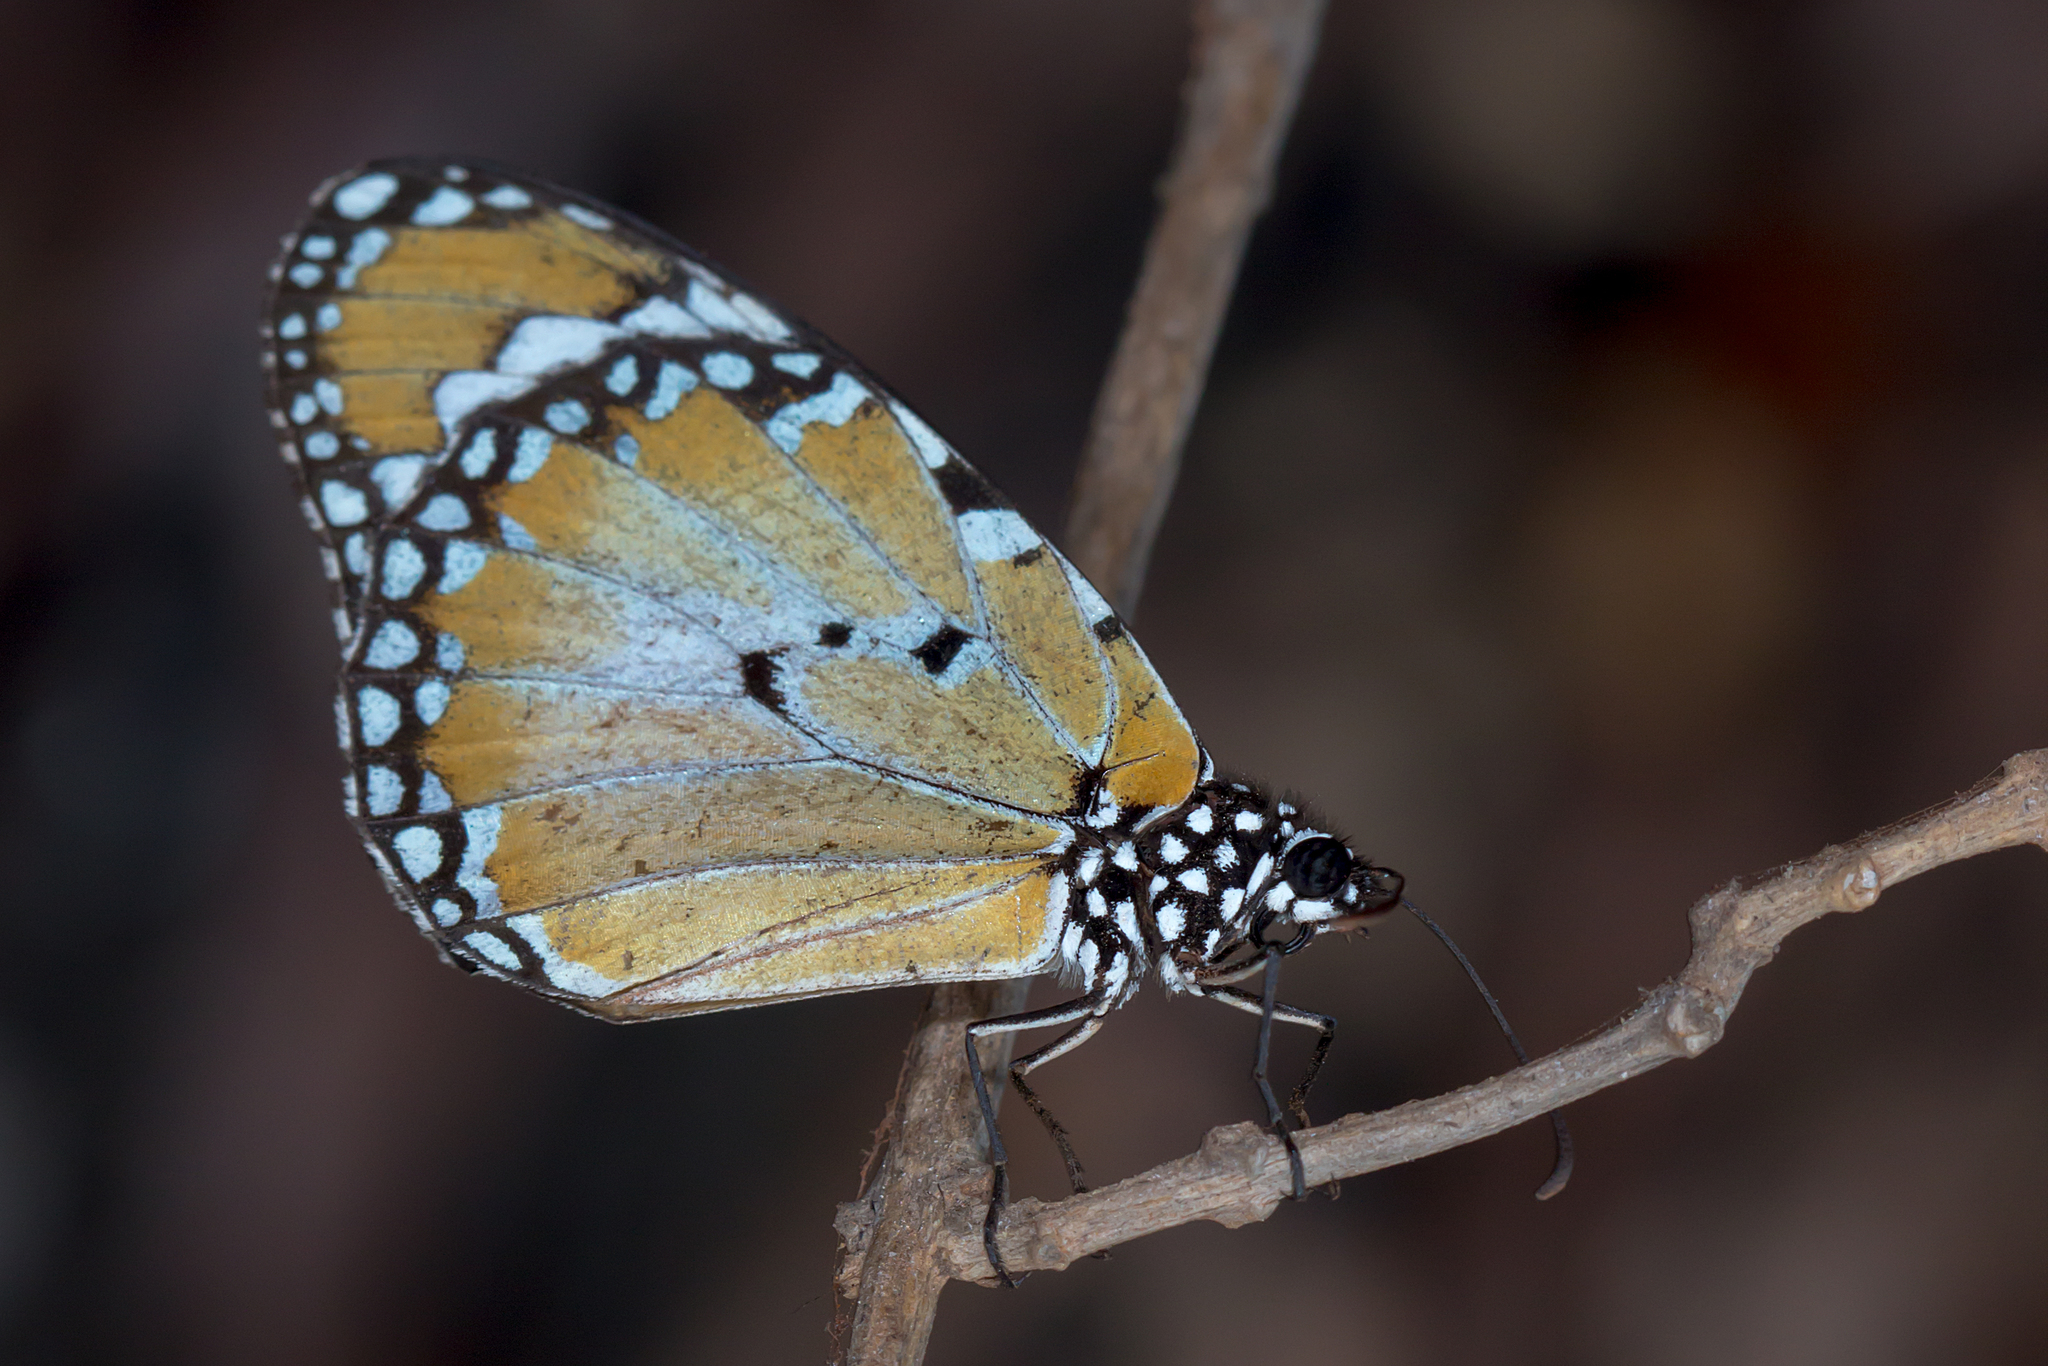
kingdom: Animalia
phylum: Arthropoda
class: Insecta
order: Lepidoptera
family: Nymphalidae
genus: Danaus
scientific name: Danaus chrysippus
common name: Plain tiger
